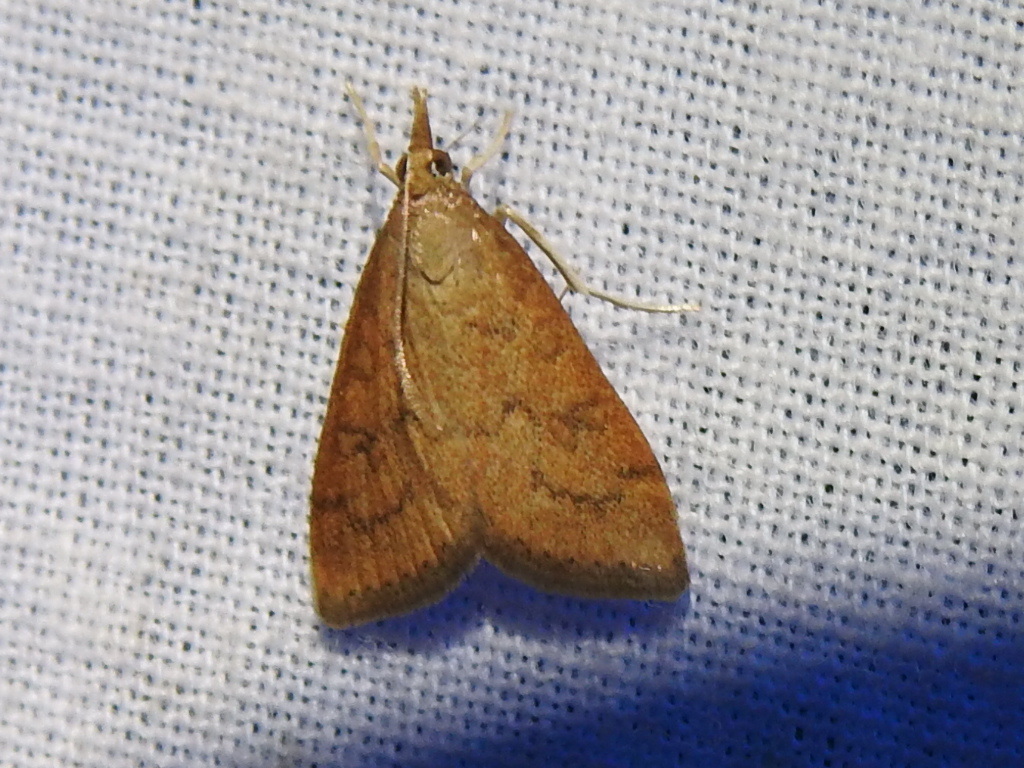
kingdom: Animalia
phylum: Arthropoda
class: Insecta
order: Lepidoptera
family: Crambidae
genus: Udea
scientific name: Udea rubigalis
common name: Celery leaftier moth
